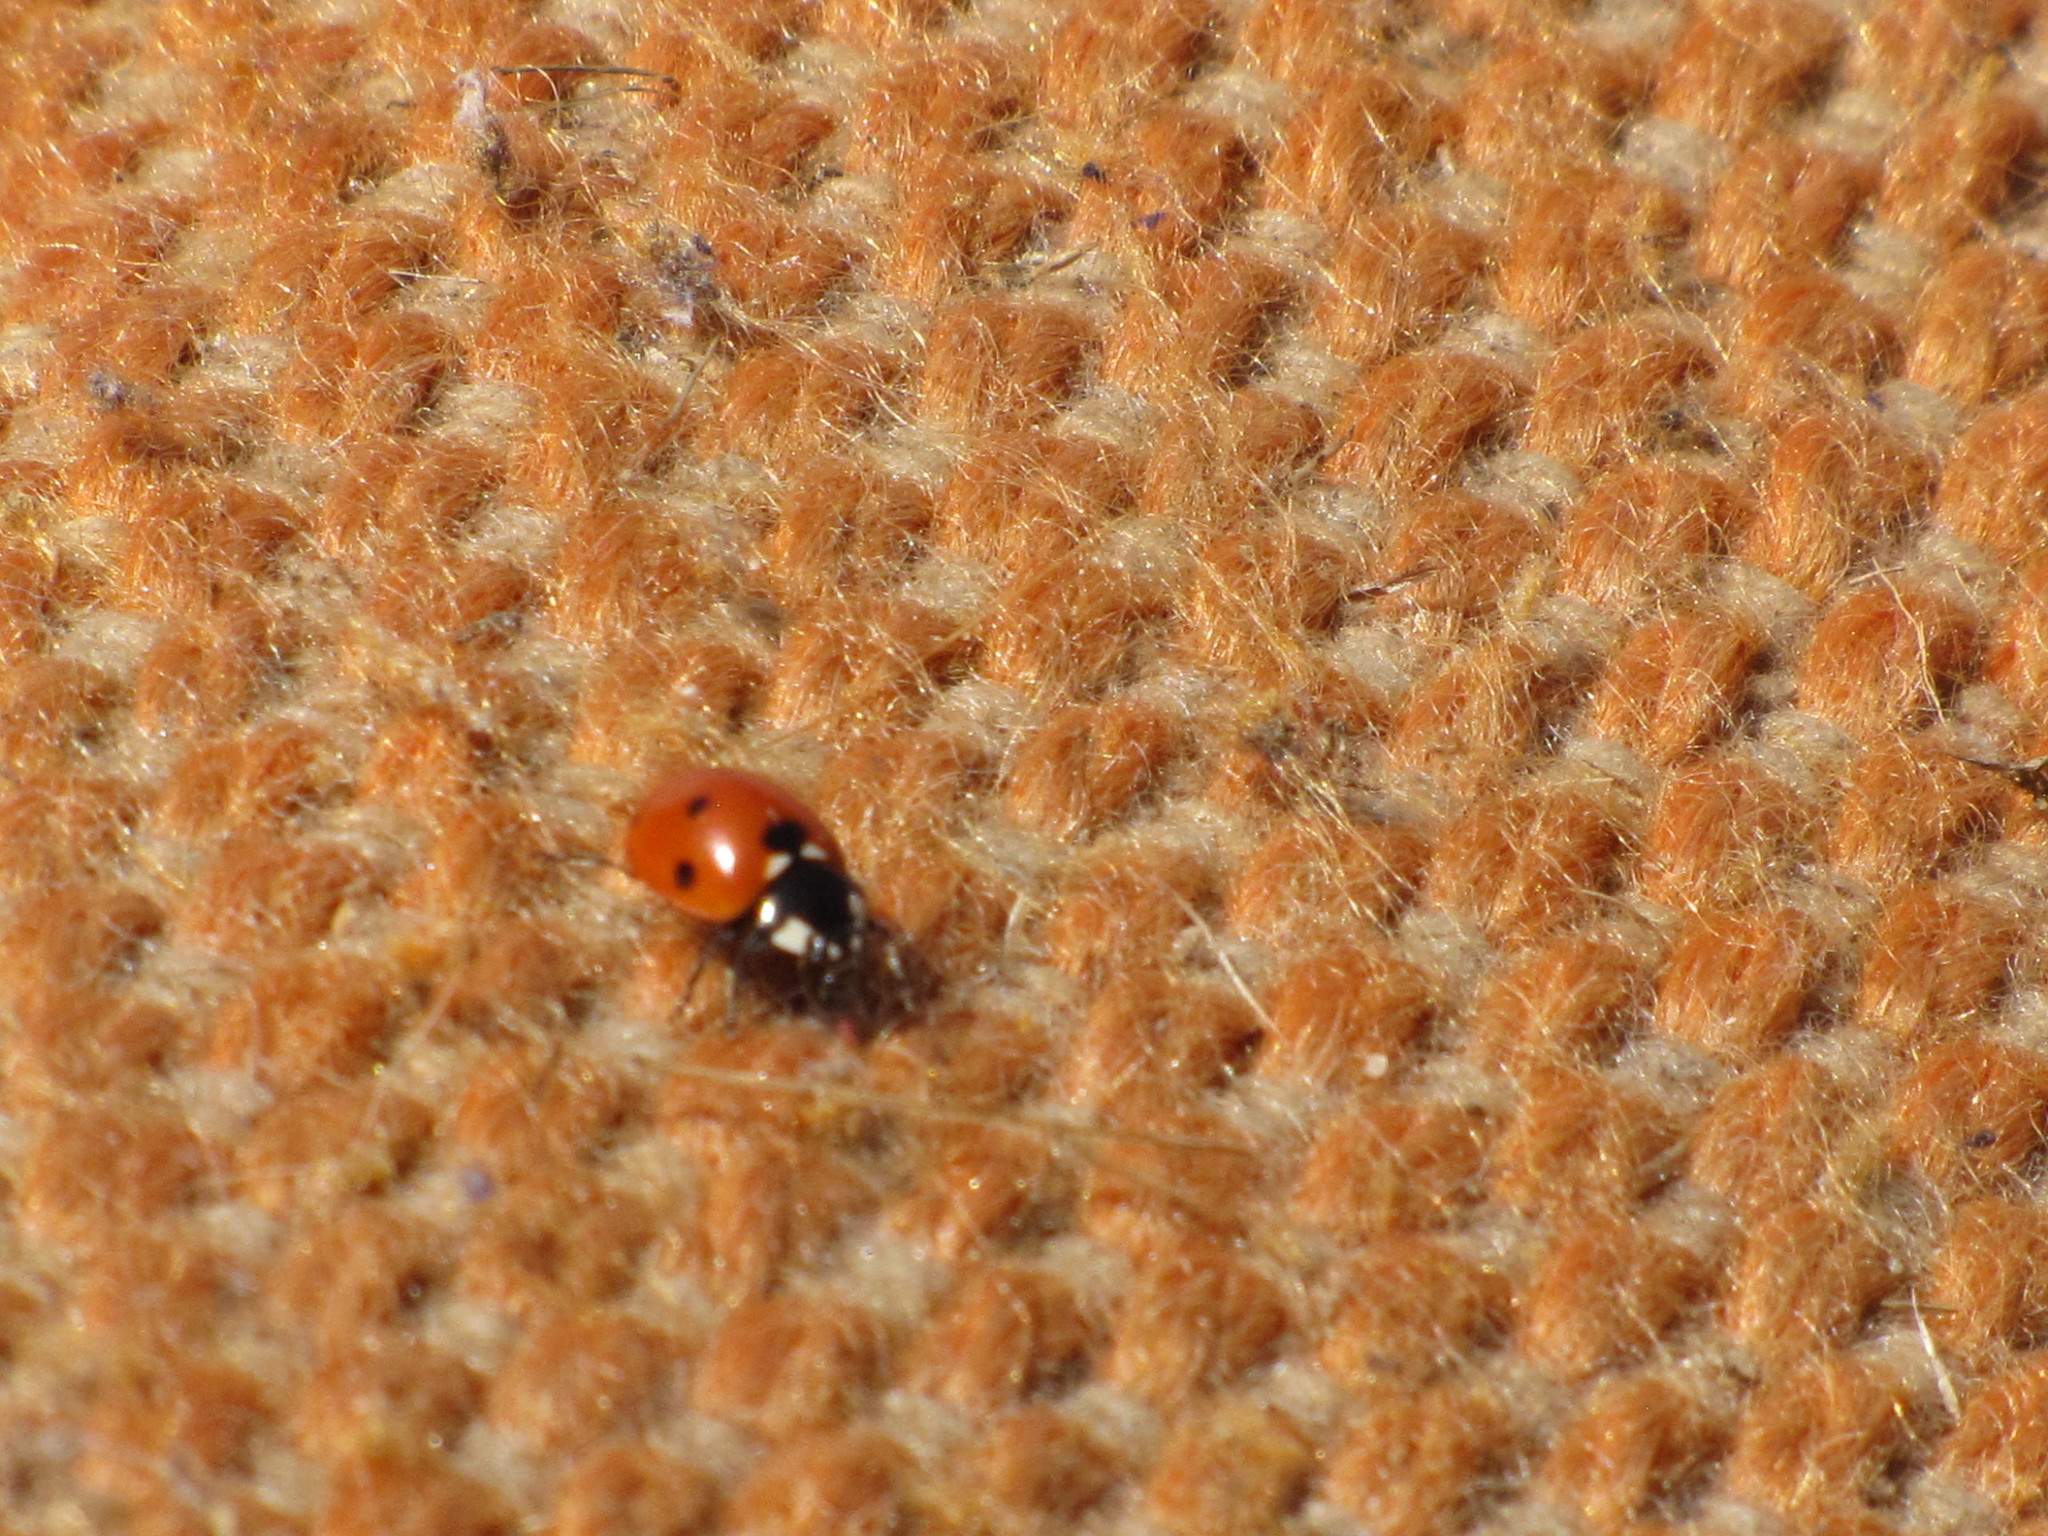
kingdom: Animalia
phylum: Arthropoda
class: Insecta
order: Coleoptera
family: Coccinellidae
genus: Coccinella
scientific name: Coccinella septempunctata
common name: Sevenspotted lady beetle
